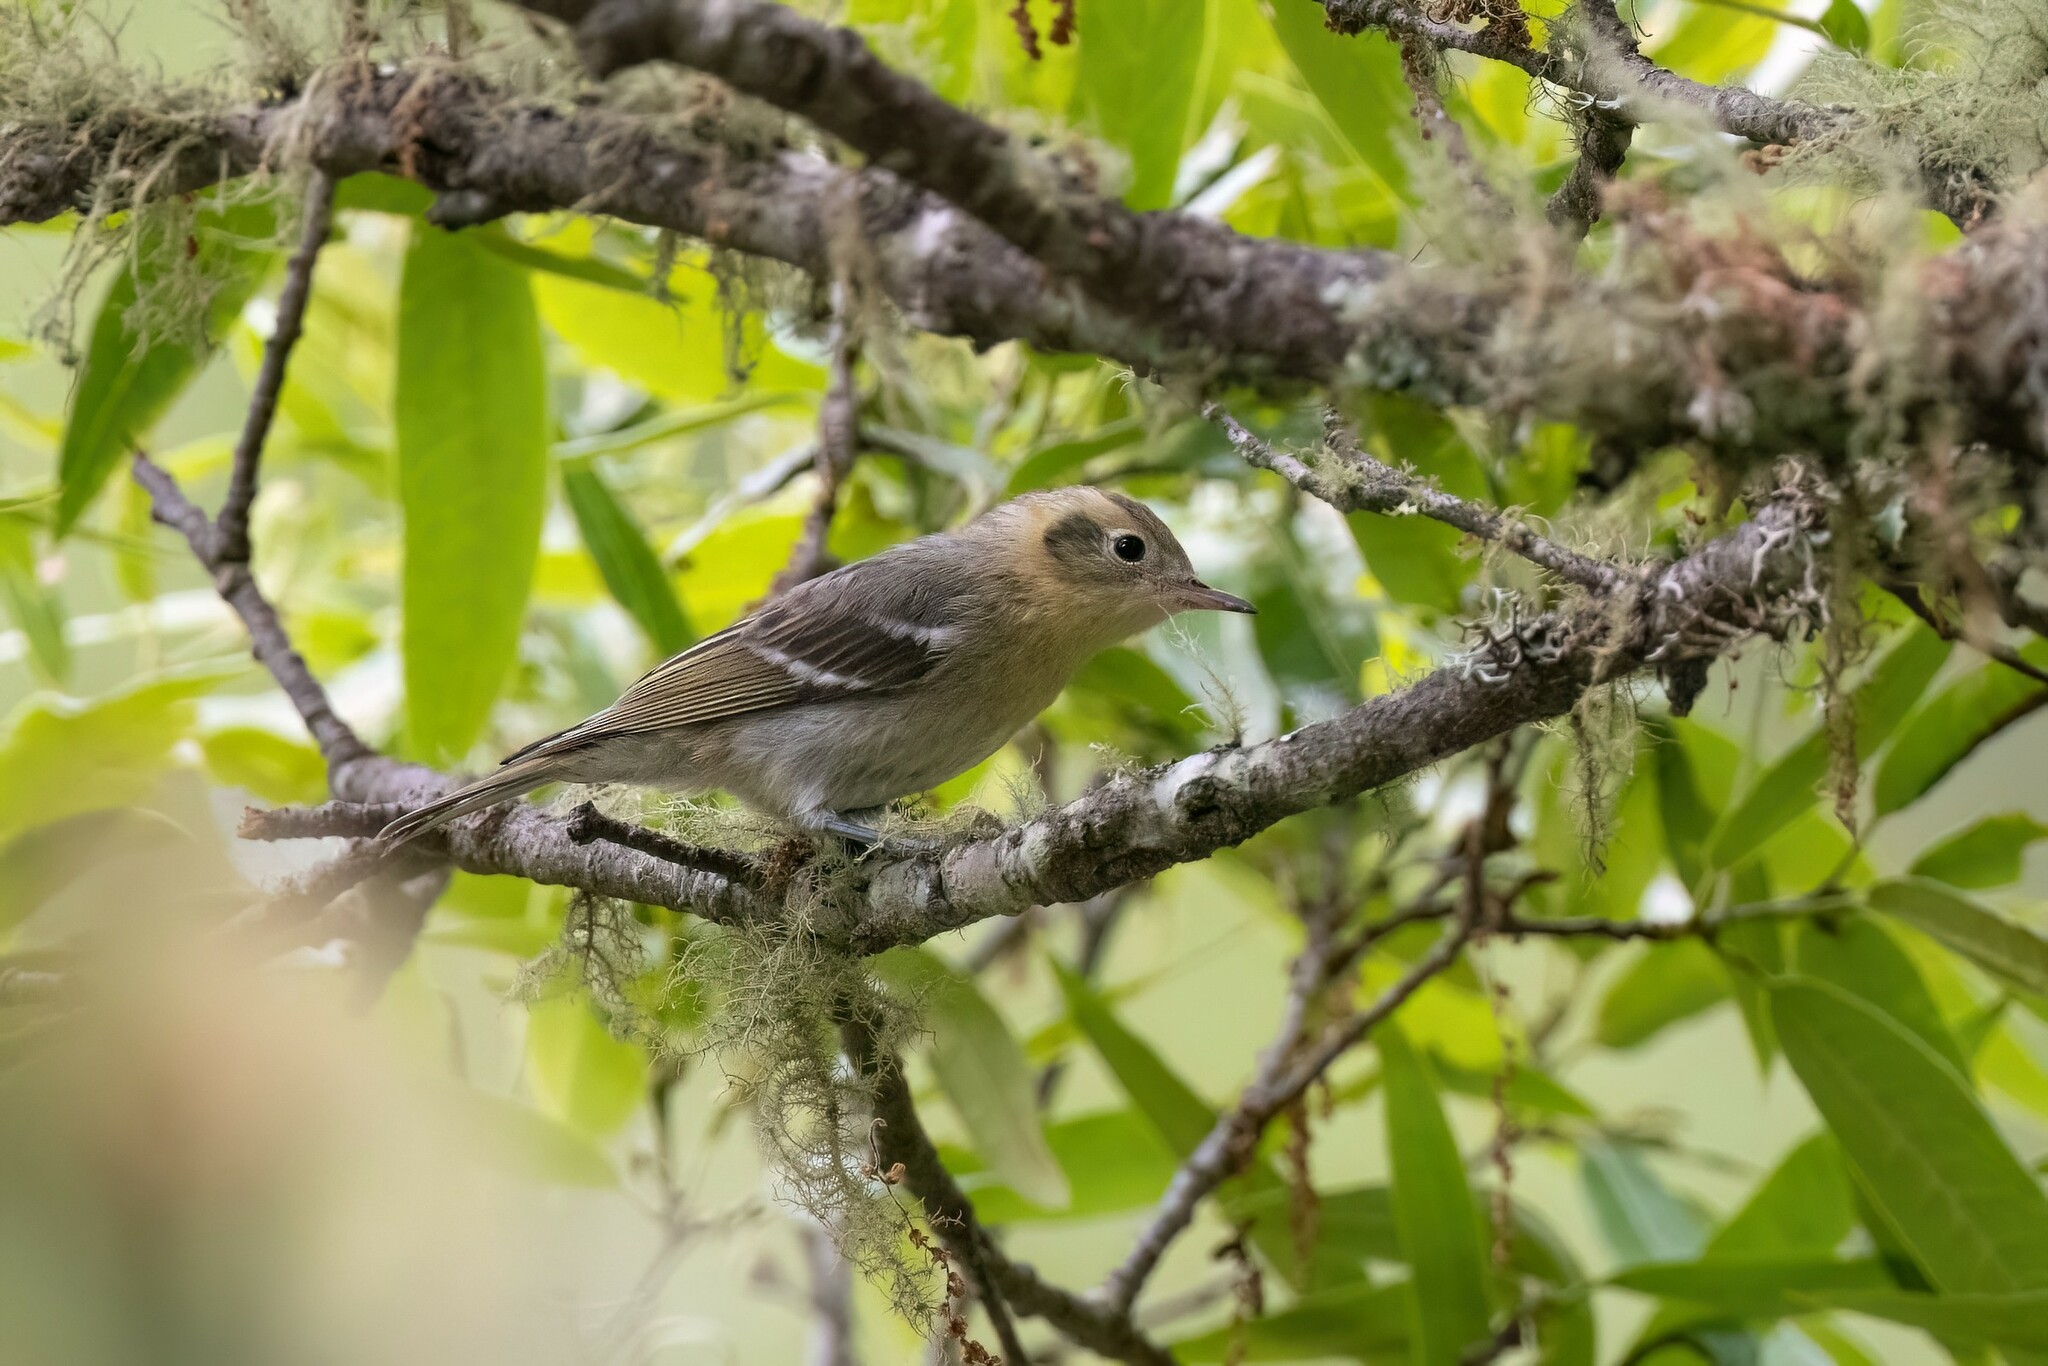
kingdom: Animalia
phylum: Chordata
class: Aves
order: Passeriformes
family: Peucedramidae
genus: Peucedramus
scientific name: Peucedramus taeniatus
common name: Olive warbler
